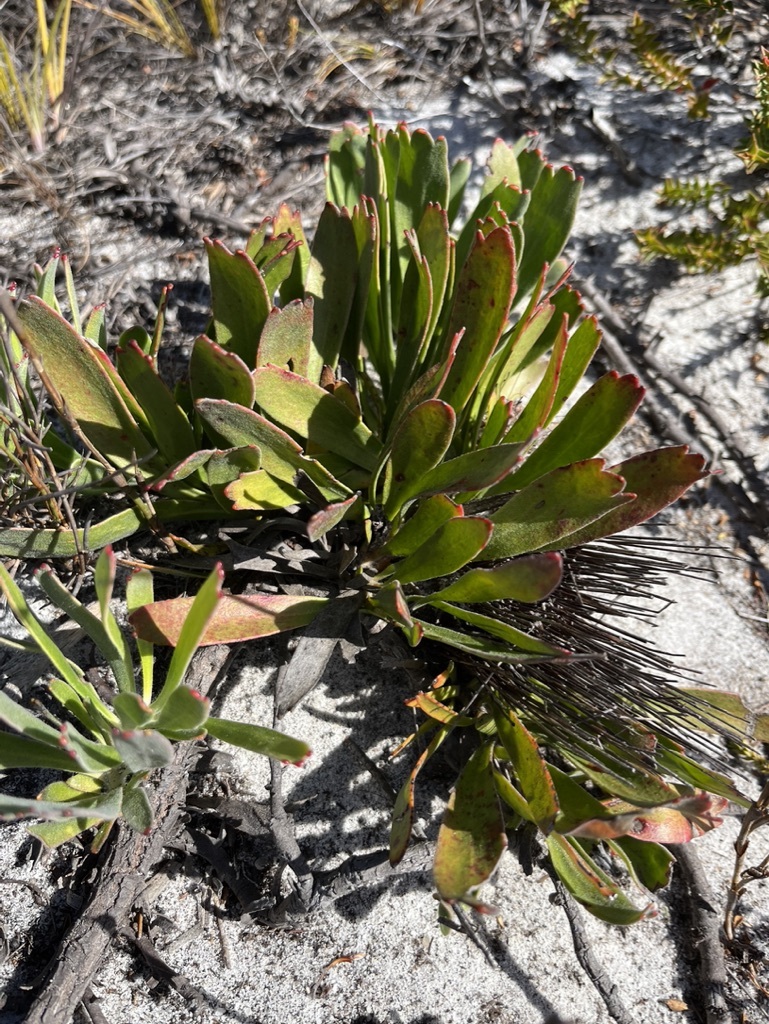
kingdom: Plantae
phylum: Tracheophyta
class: Magnoliopsida
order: Proteales
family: Proteaceae
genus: Leucospermum
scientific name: Leucospermum hypophyllocarpodendron
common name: Snakestem pincushion
